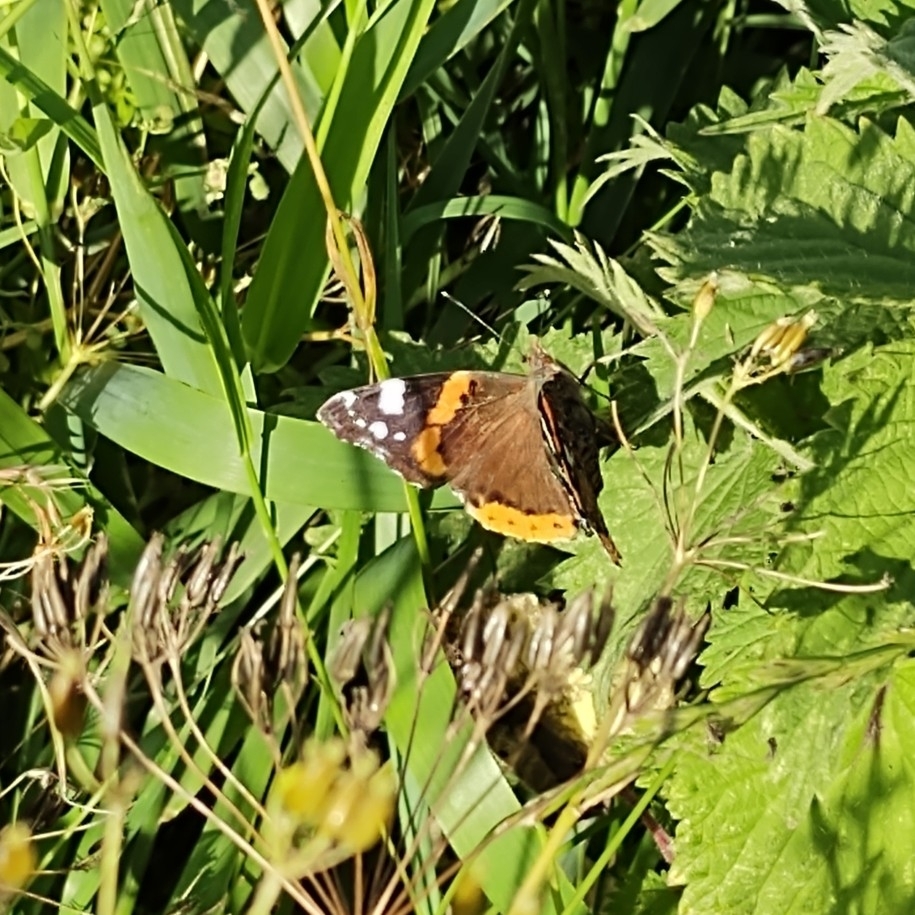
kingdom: Animalia
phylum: Arthropoda
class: Insecta
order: Lepidoptera
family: Nymphalidae
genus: Vanessa
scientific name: Vanessa atalanta
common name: Red admiral
